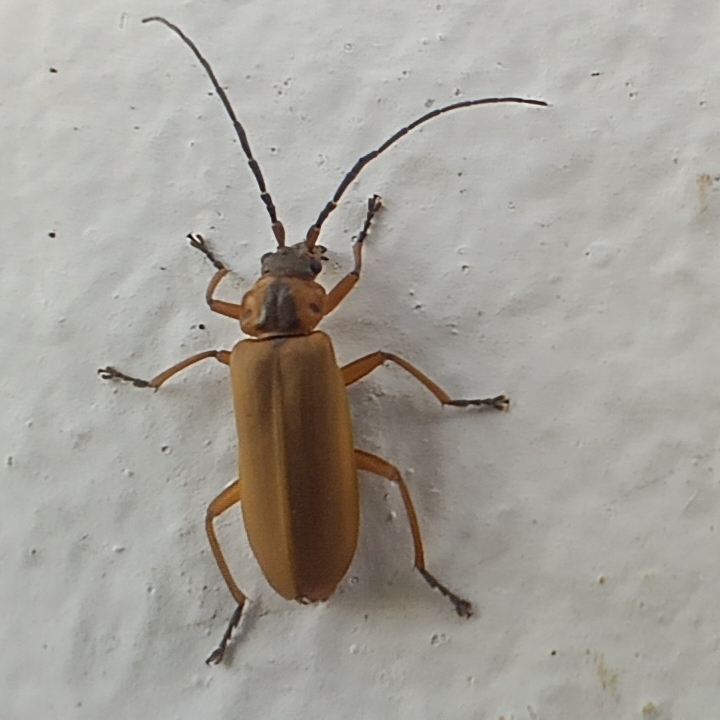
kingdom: Animalia
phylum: Arthropoda
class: Insecta
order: Coleoptera
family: Cantharidae
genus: Afronycha
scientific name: Afronycha
